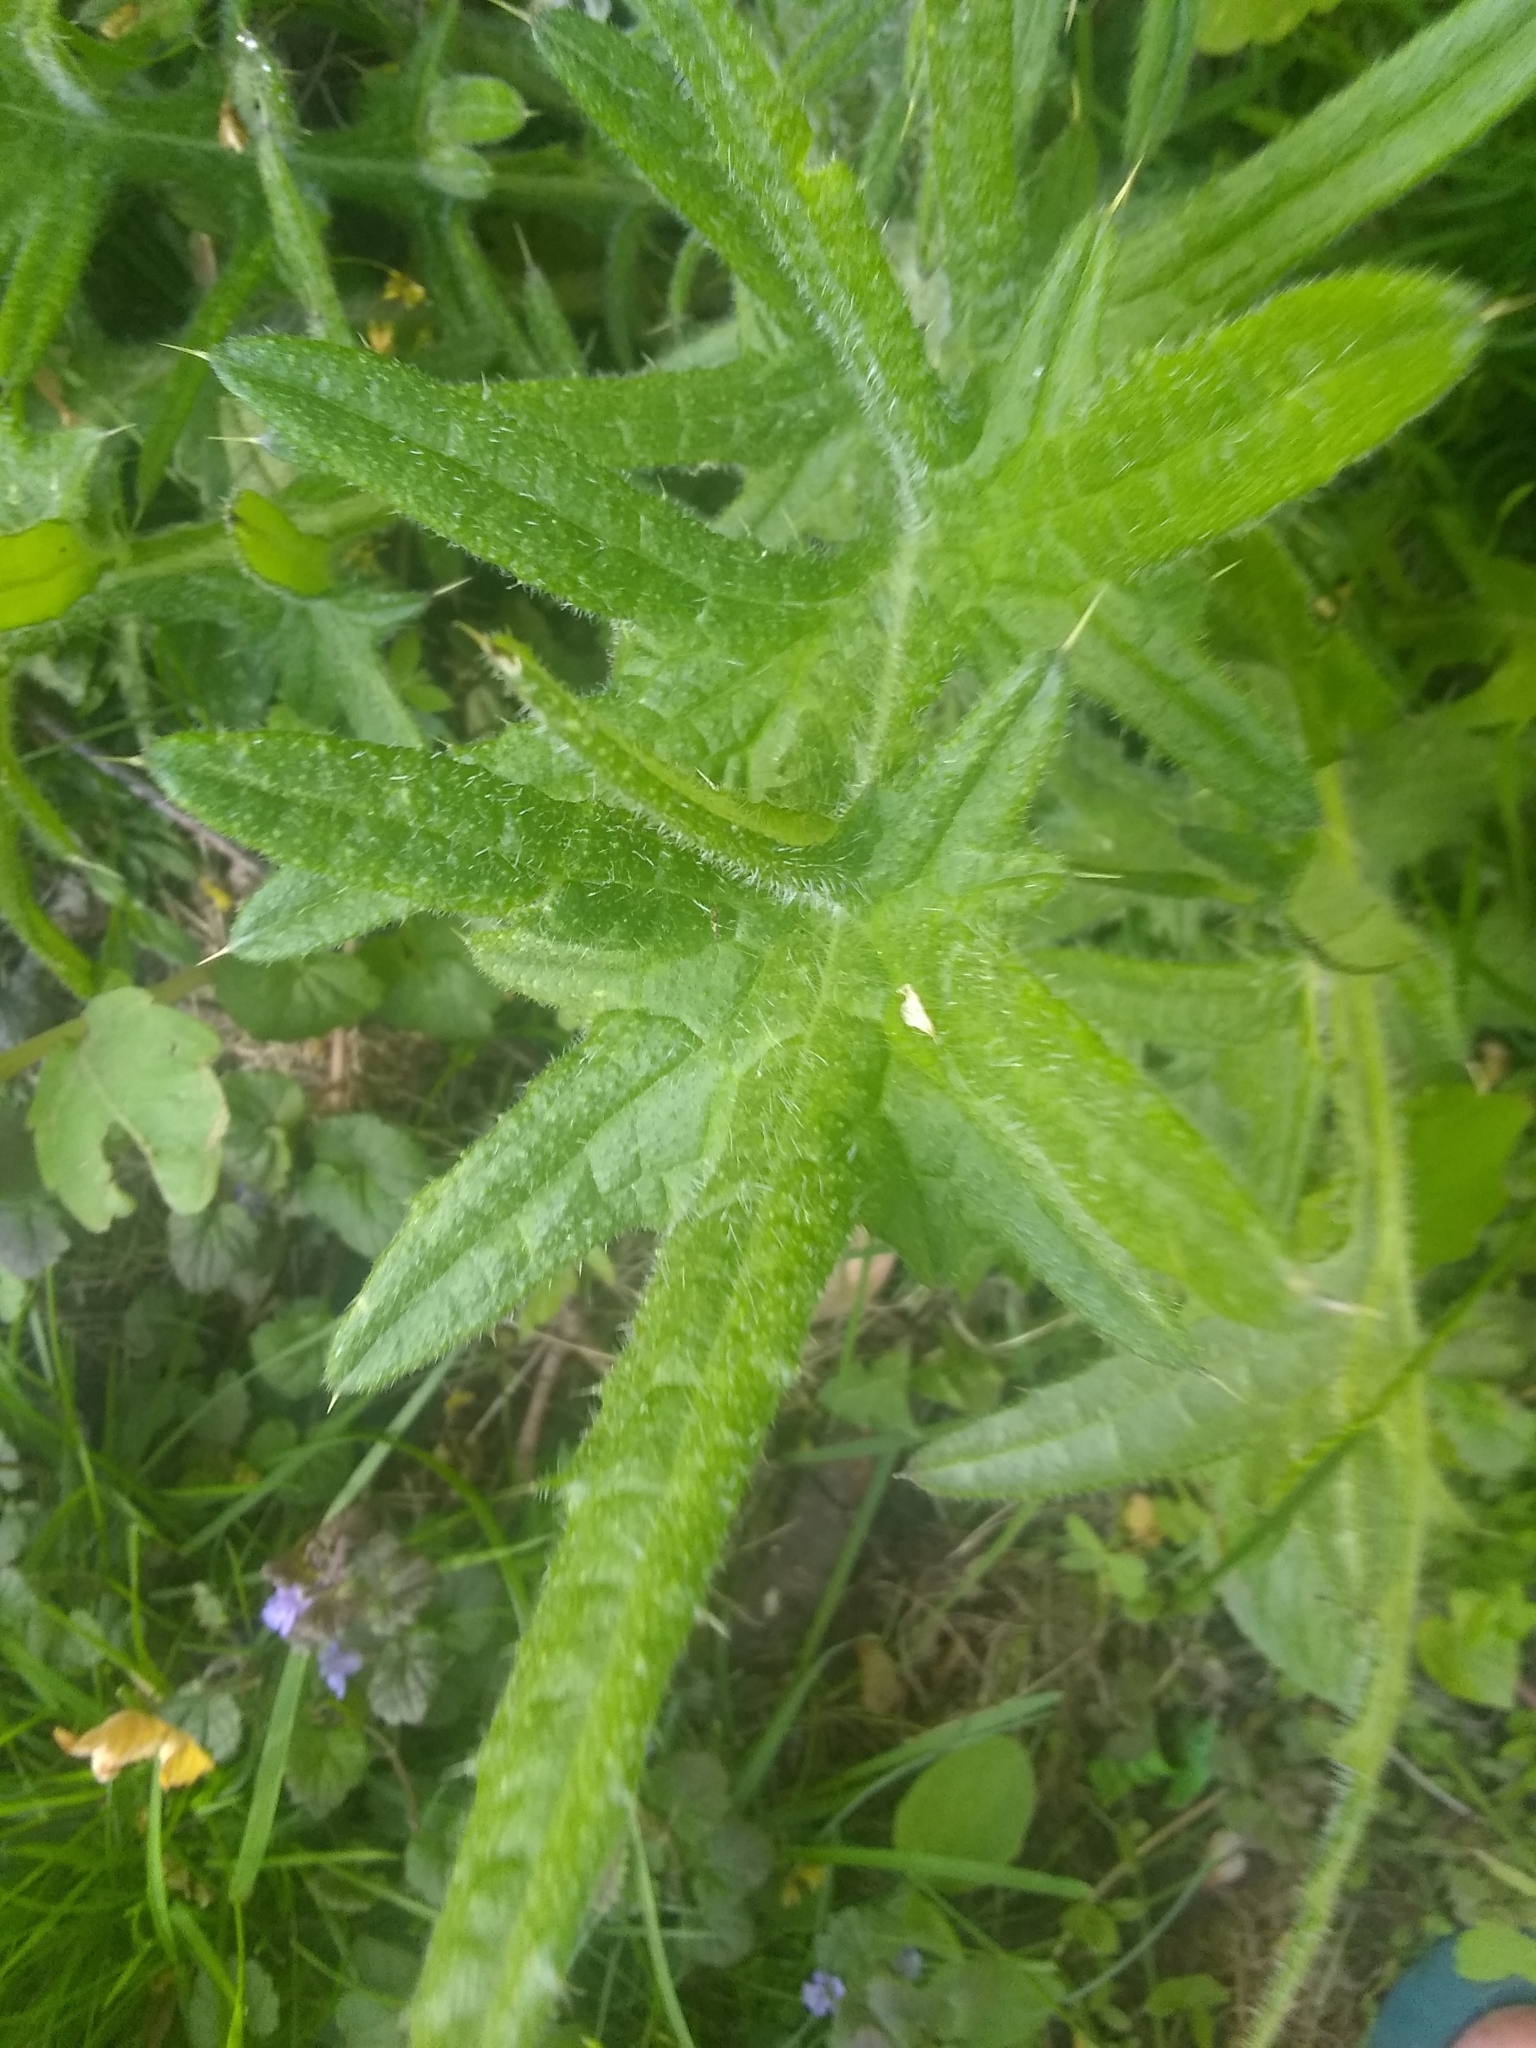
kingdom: Plantae
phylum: Tracheophyta
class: Magnoliopsida
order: Asterales
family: Asteraceae
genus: Cirsium
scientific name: Cirsium vulgare
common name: Bull thistle
